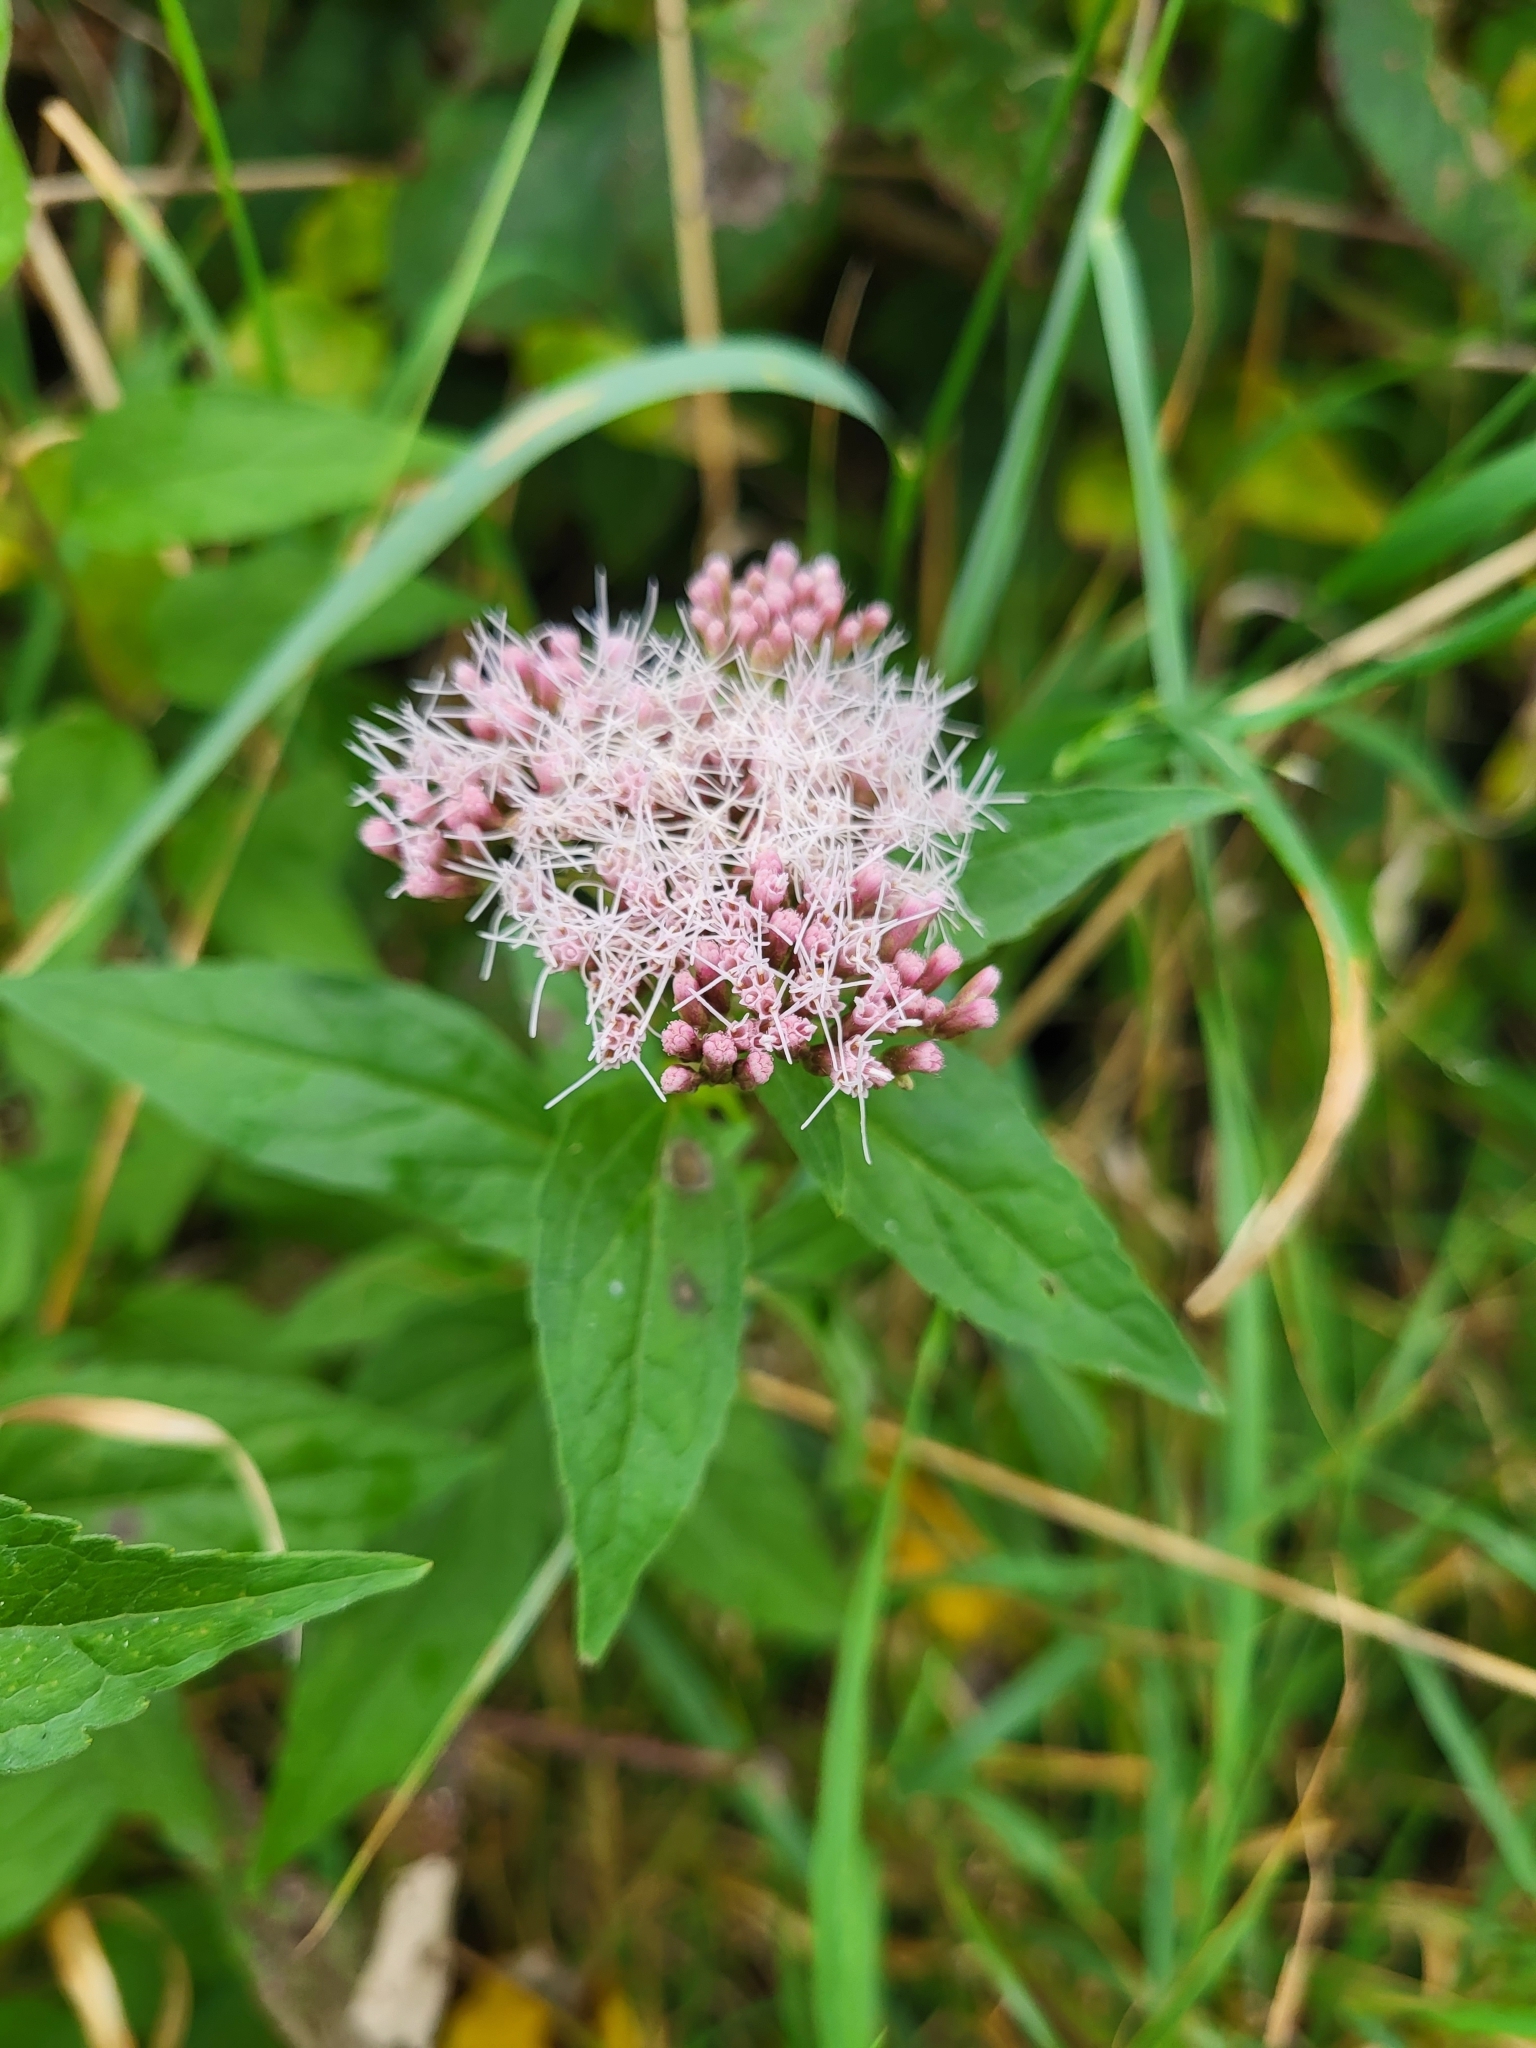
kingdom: Plantae
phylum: Tracheophyta
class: Magnoliopsida
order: Asterales
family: Asteraceae
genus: Eupatorium
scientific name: Eupatorium cannabinum
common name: Hemp-agrimony
